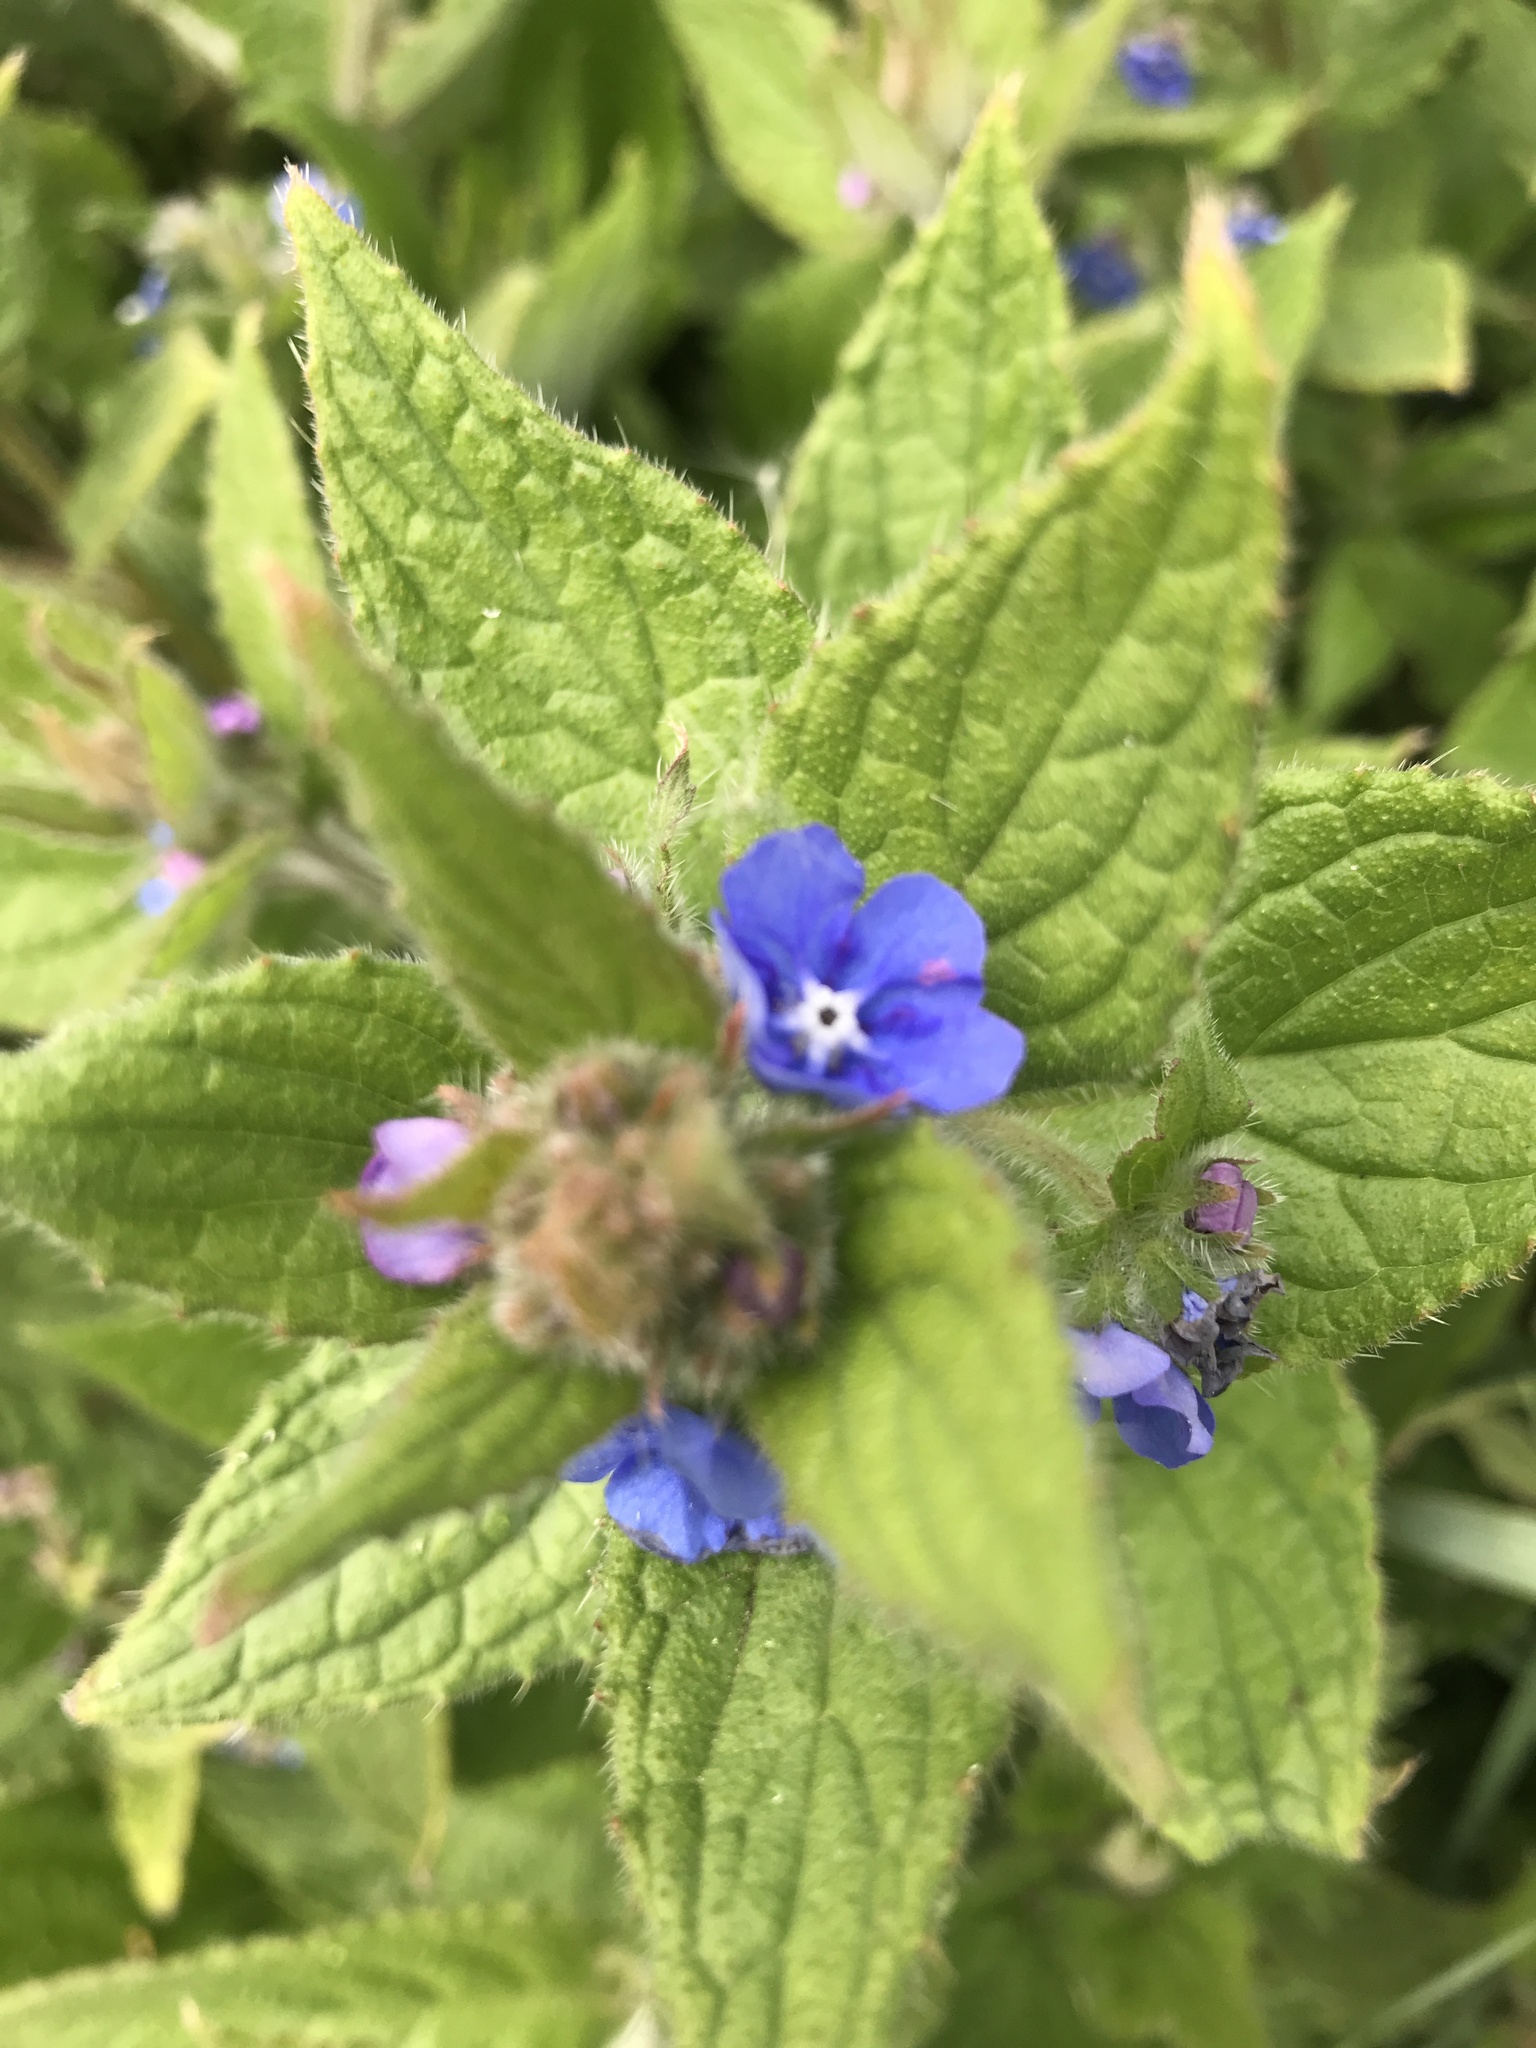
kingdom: Plantae
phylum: Tracheophyta
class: Magnoliopsida
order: Boraginales
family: Boraginaceae
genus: Pentaglottis
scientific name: Pentaglottis sempervirens
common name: Green alkanet
